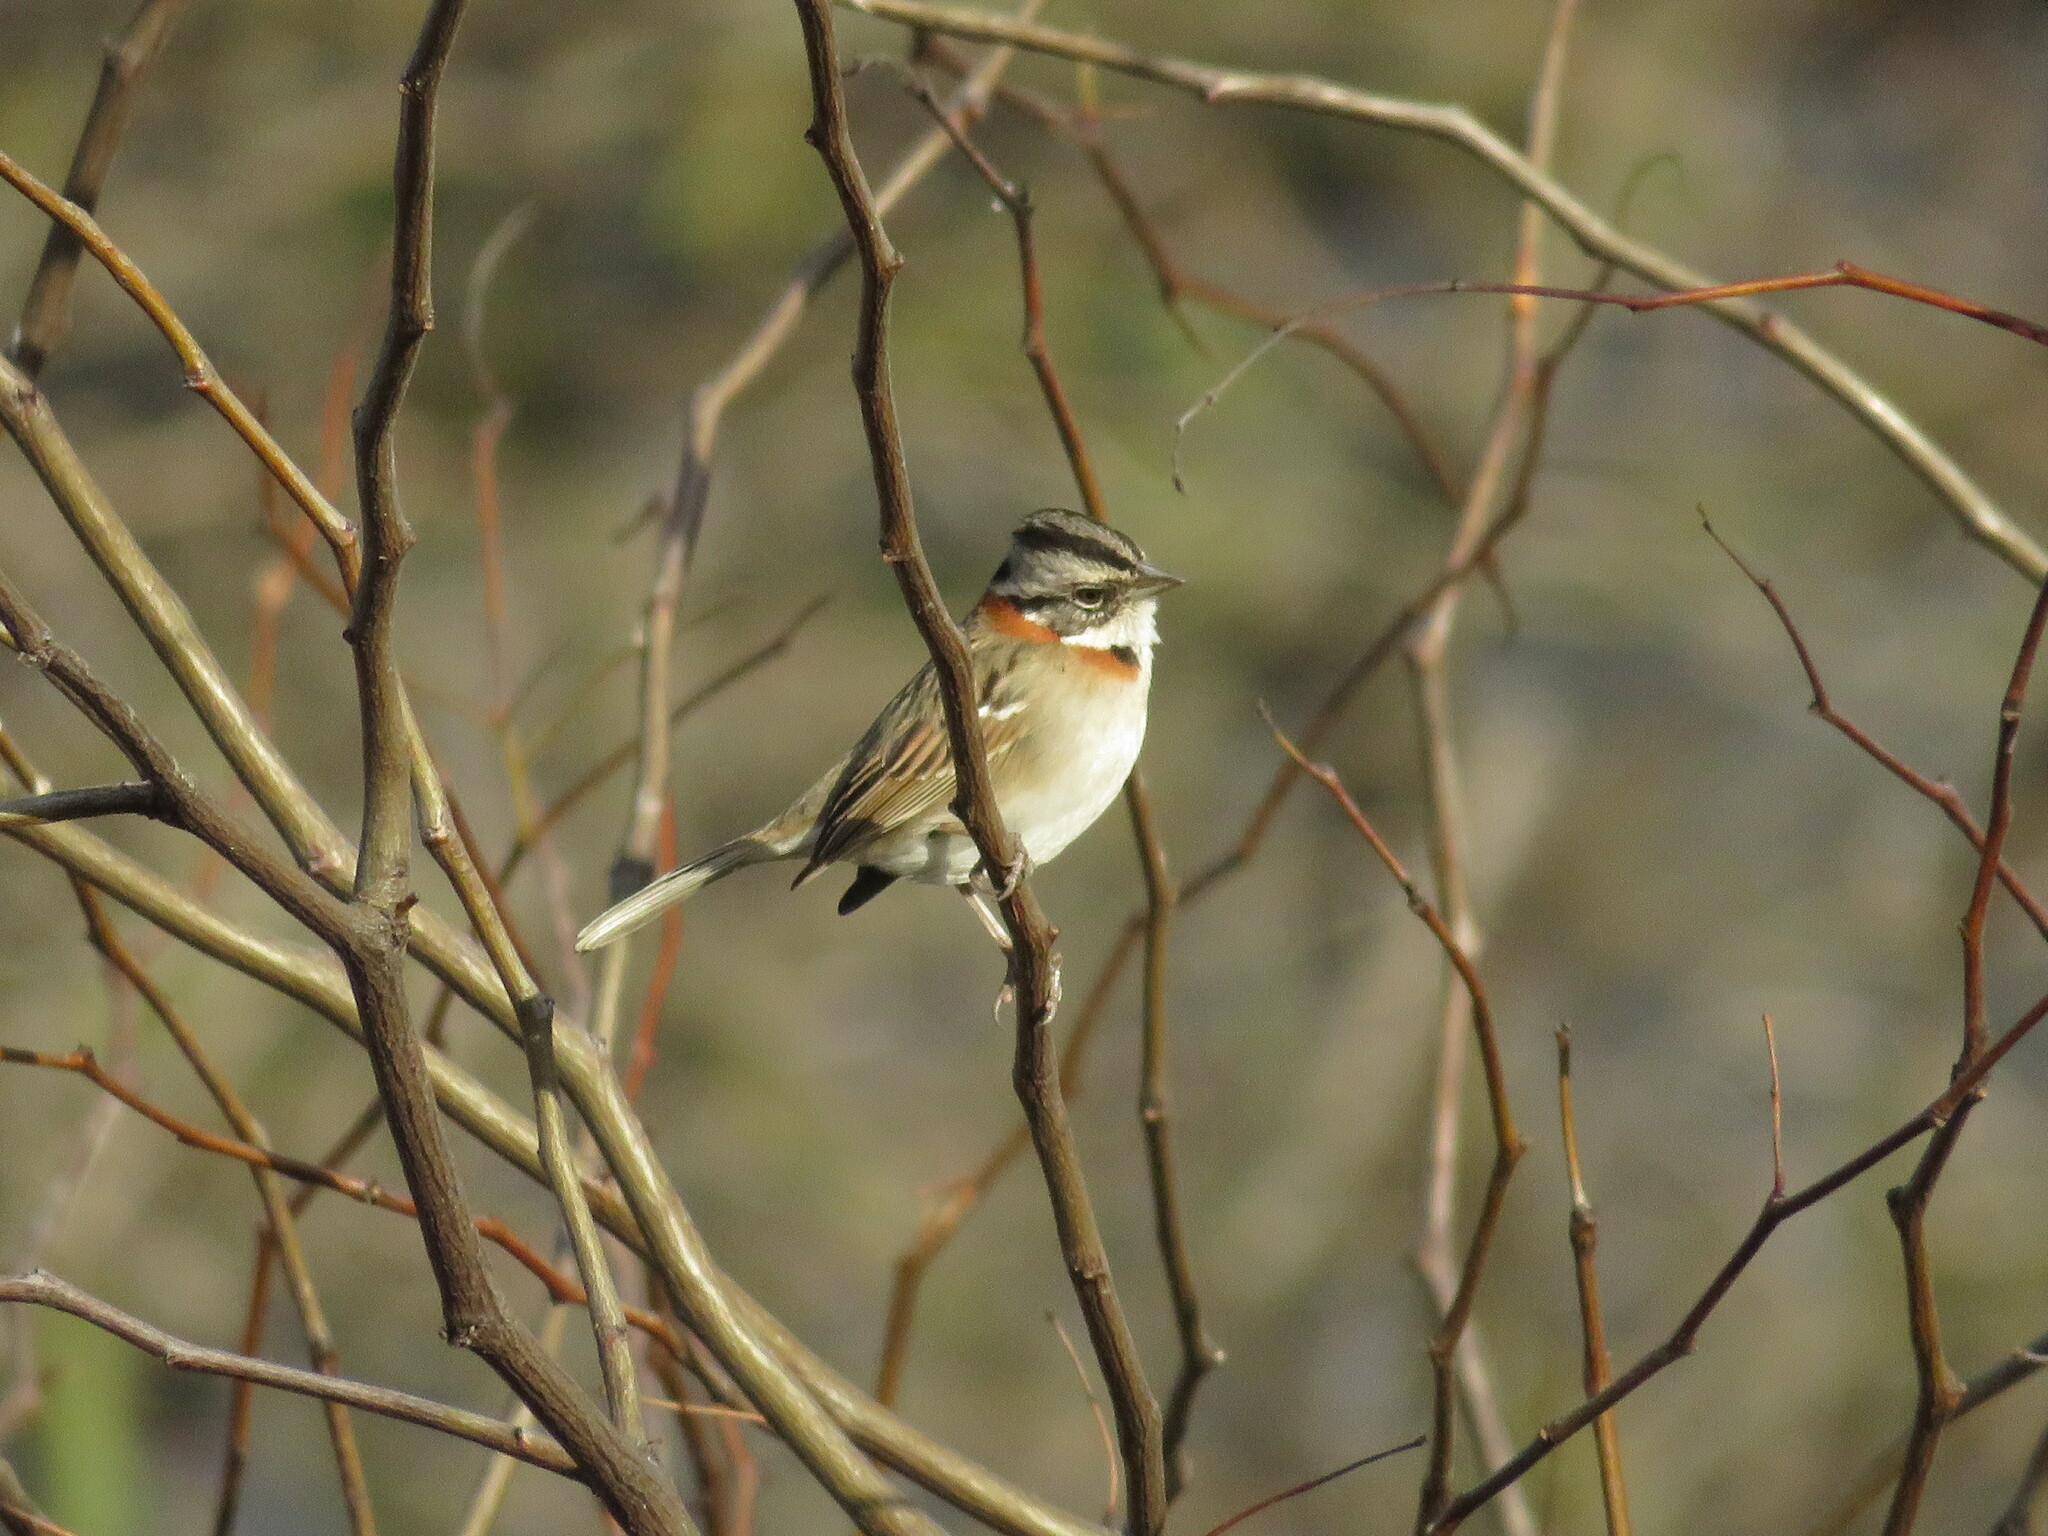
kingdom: Animalia
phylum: Chordata
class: Aves
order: Passeriformes
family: Passerellidae
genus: Zonotrichia
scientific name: Zonotrichia capensis
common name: Rufous-collared sparrow
